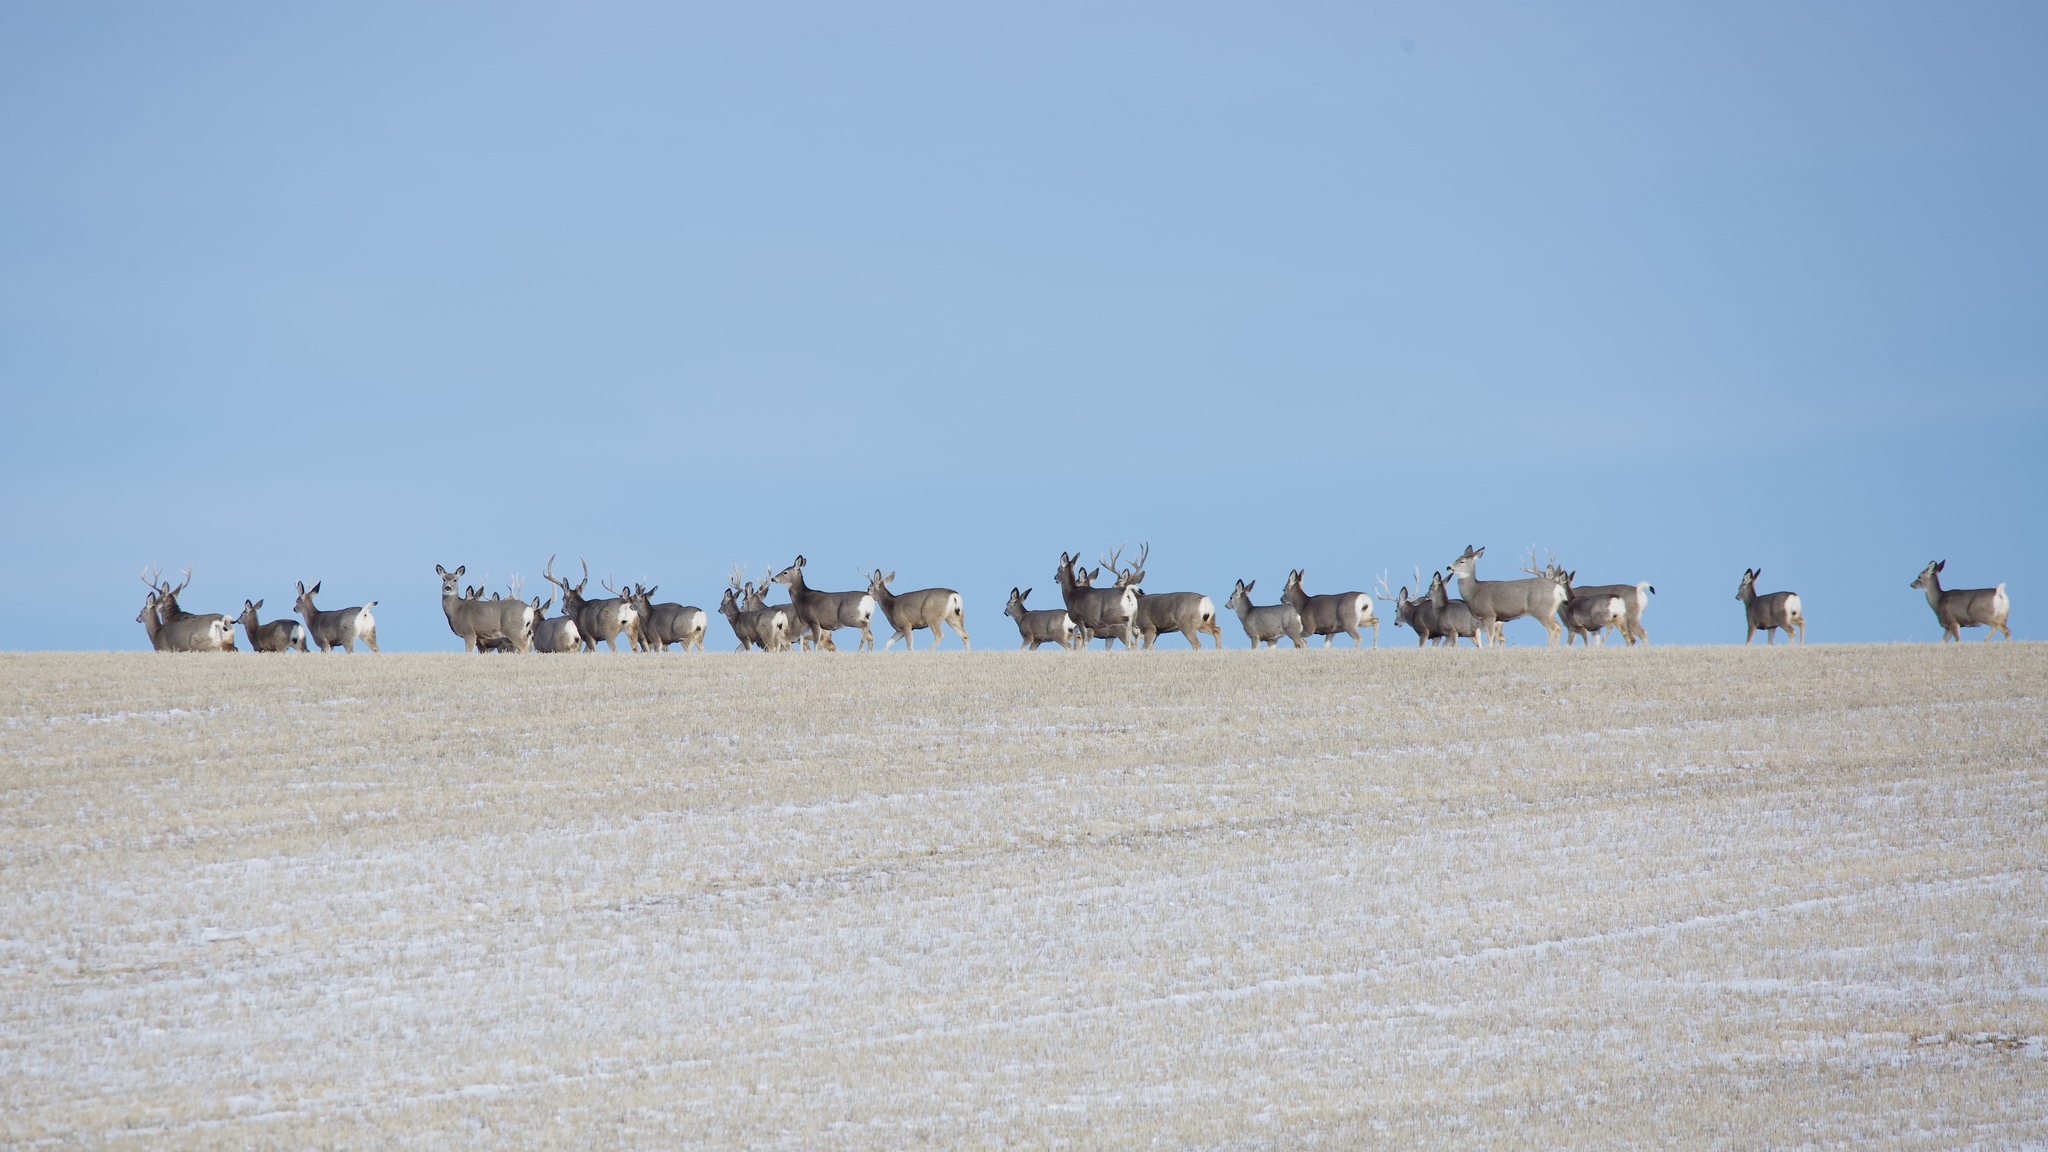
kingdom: Animalia
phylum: Chordata
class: Mammalia
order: Artiodactyla
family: Cervidae
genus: Odocoileus
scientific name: Odocoileus hemionus
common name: Mule deer
